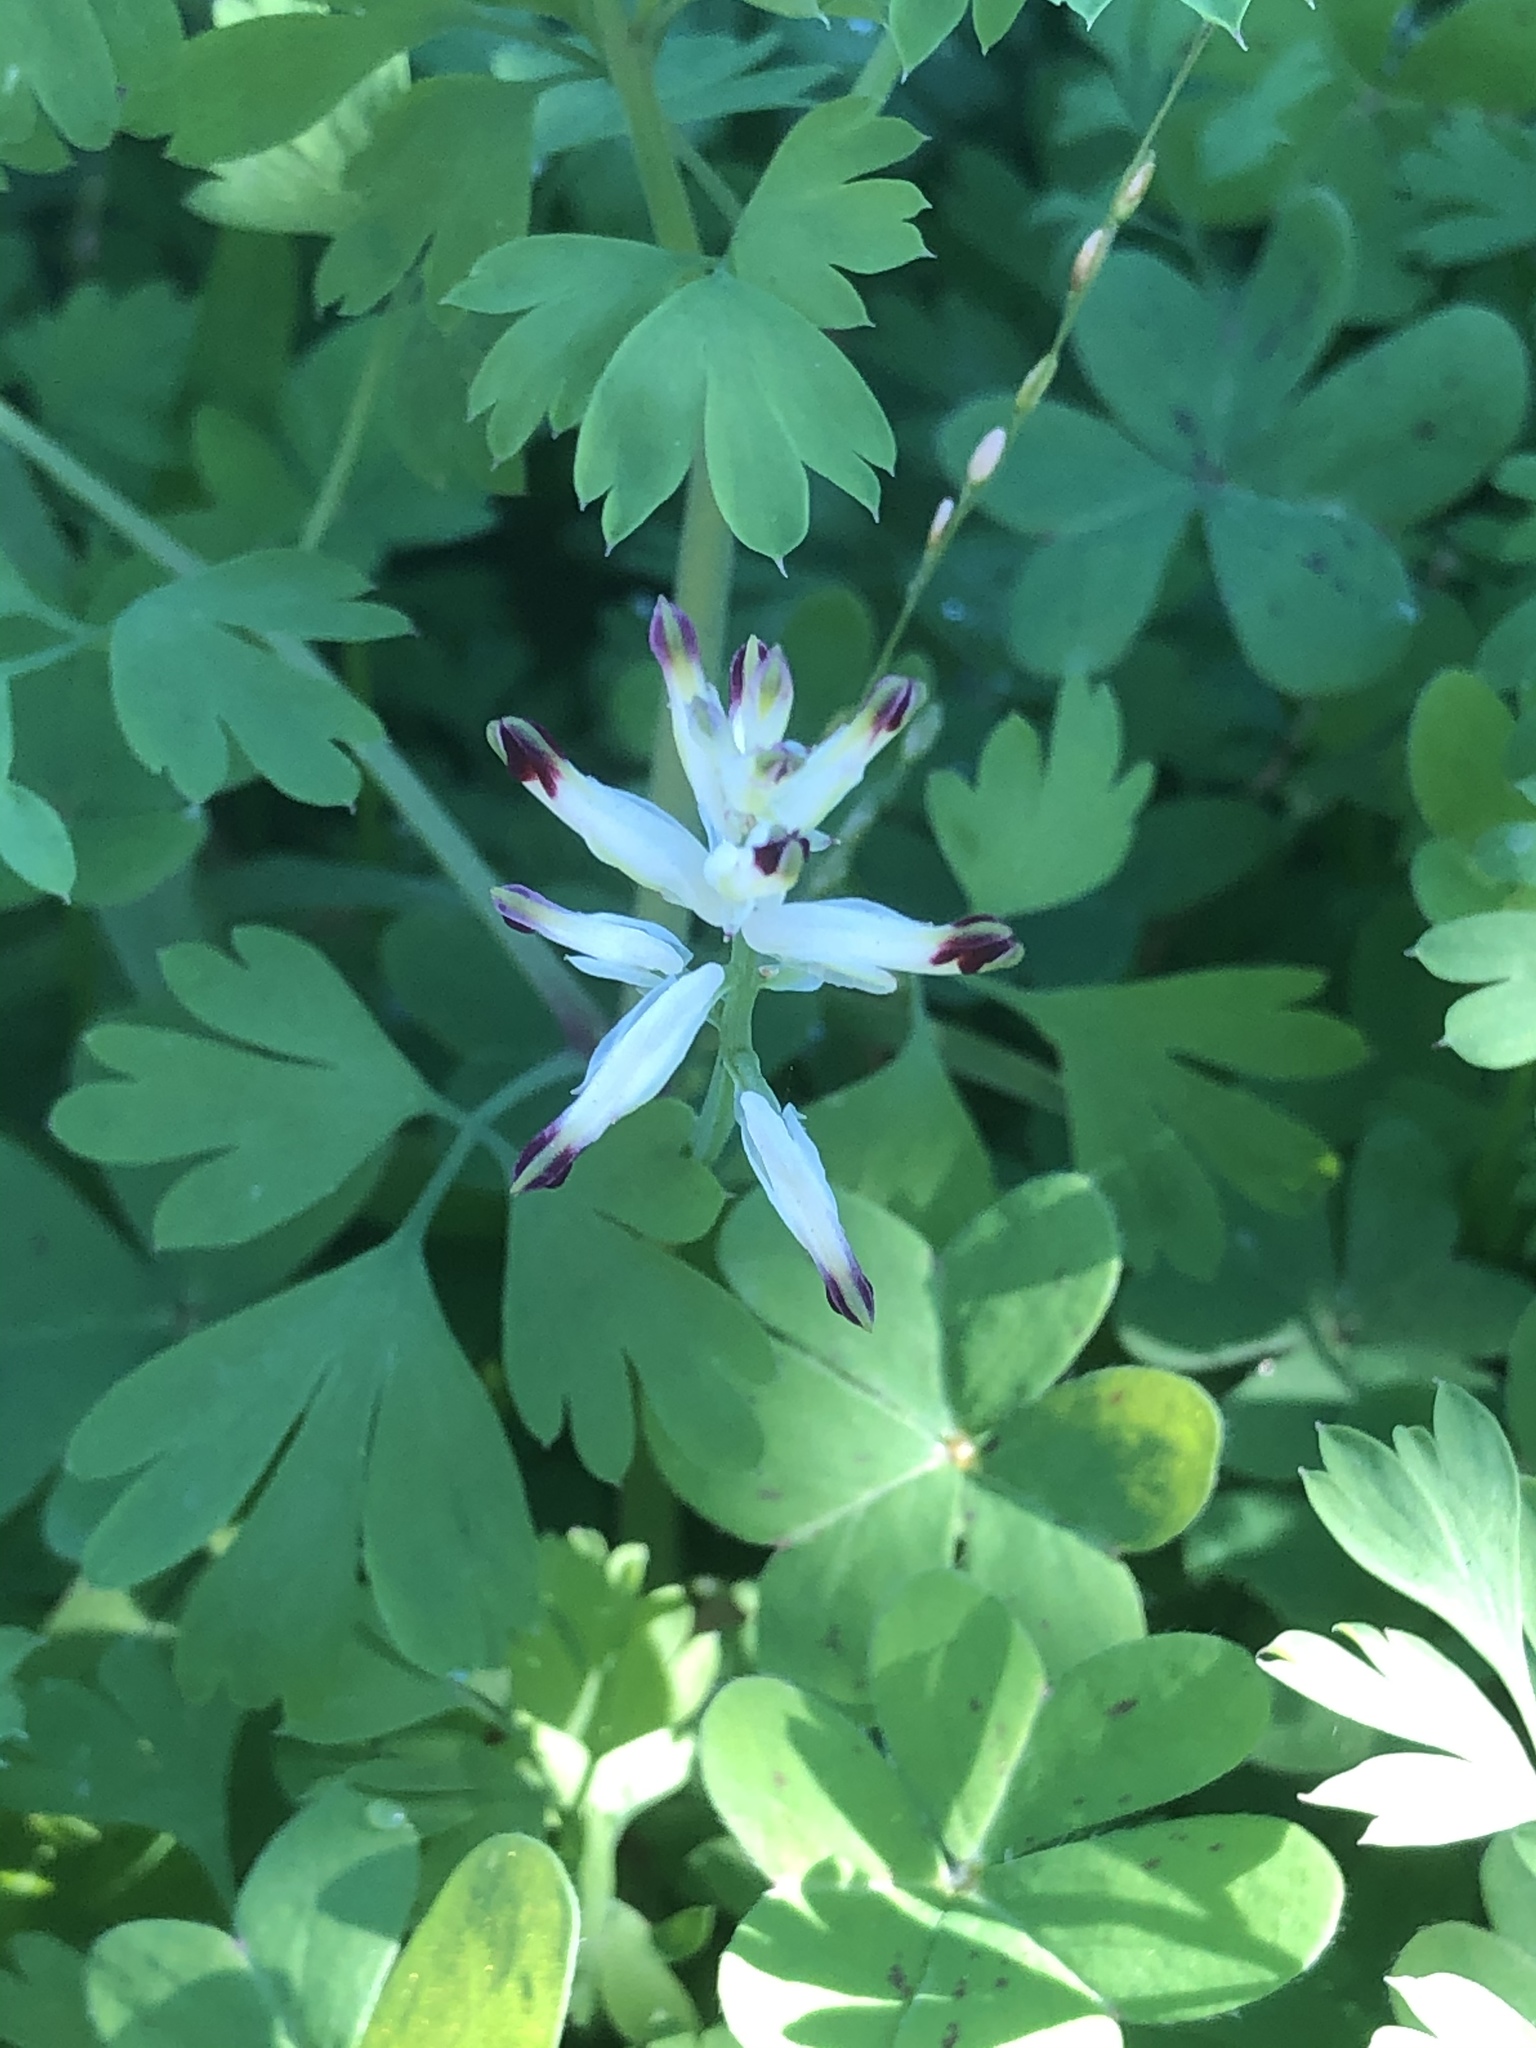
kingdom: Plantae
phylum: Tracheophyta
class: Magnoliopsida
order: Ranunculales
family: Papaveraceae
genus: Fumaria
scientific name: Fumaria capreolata
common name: White ramping-fumitory
